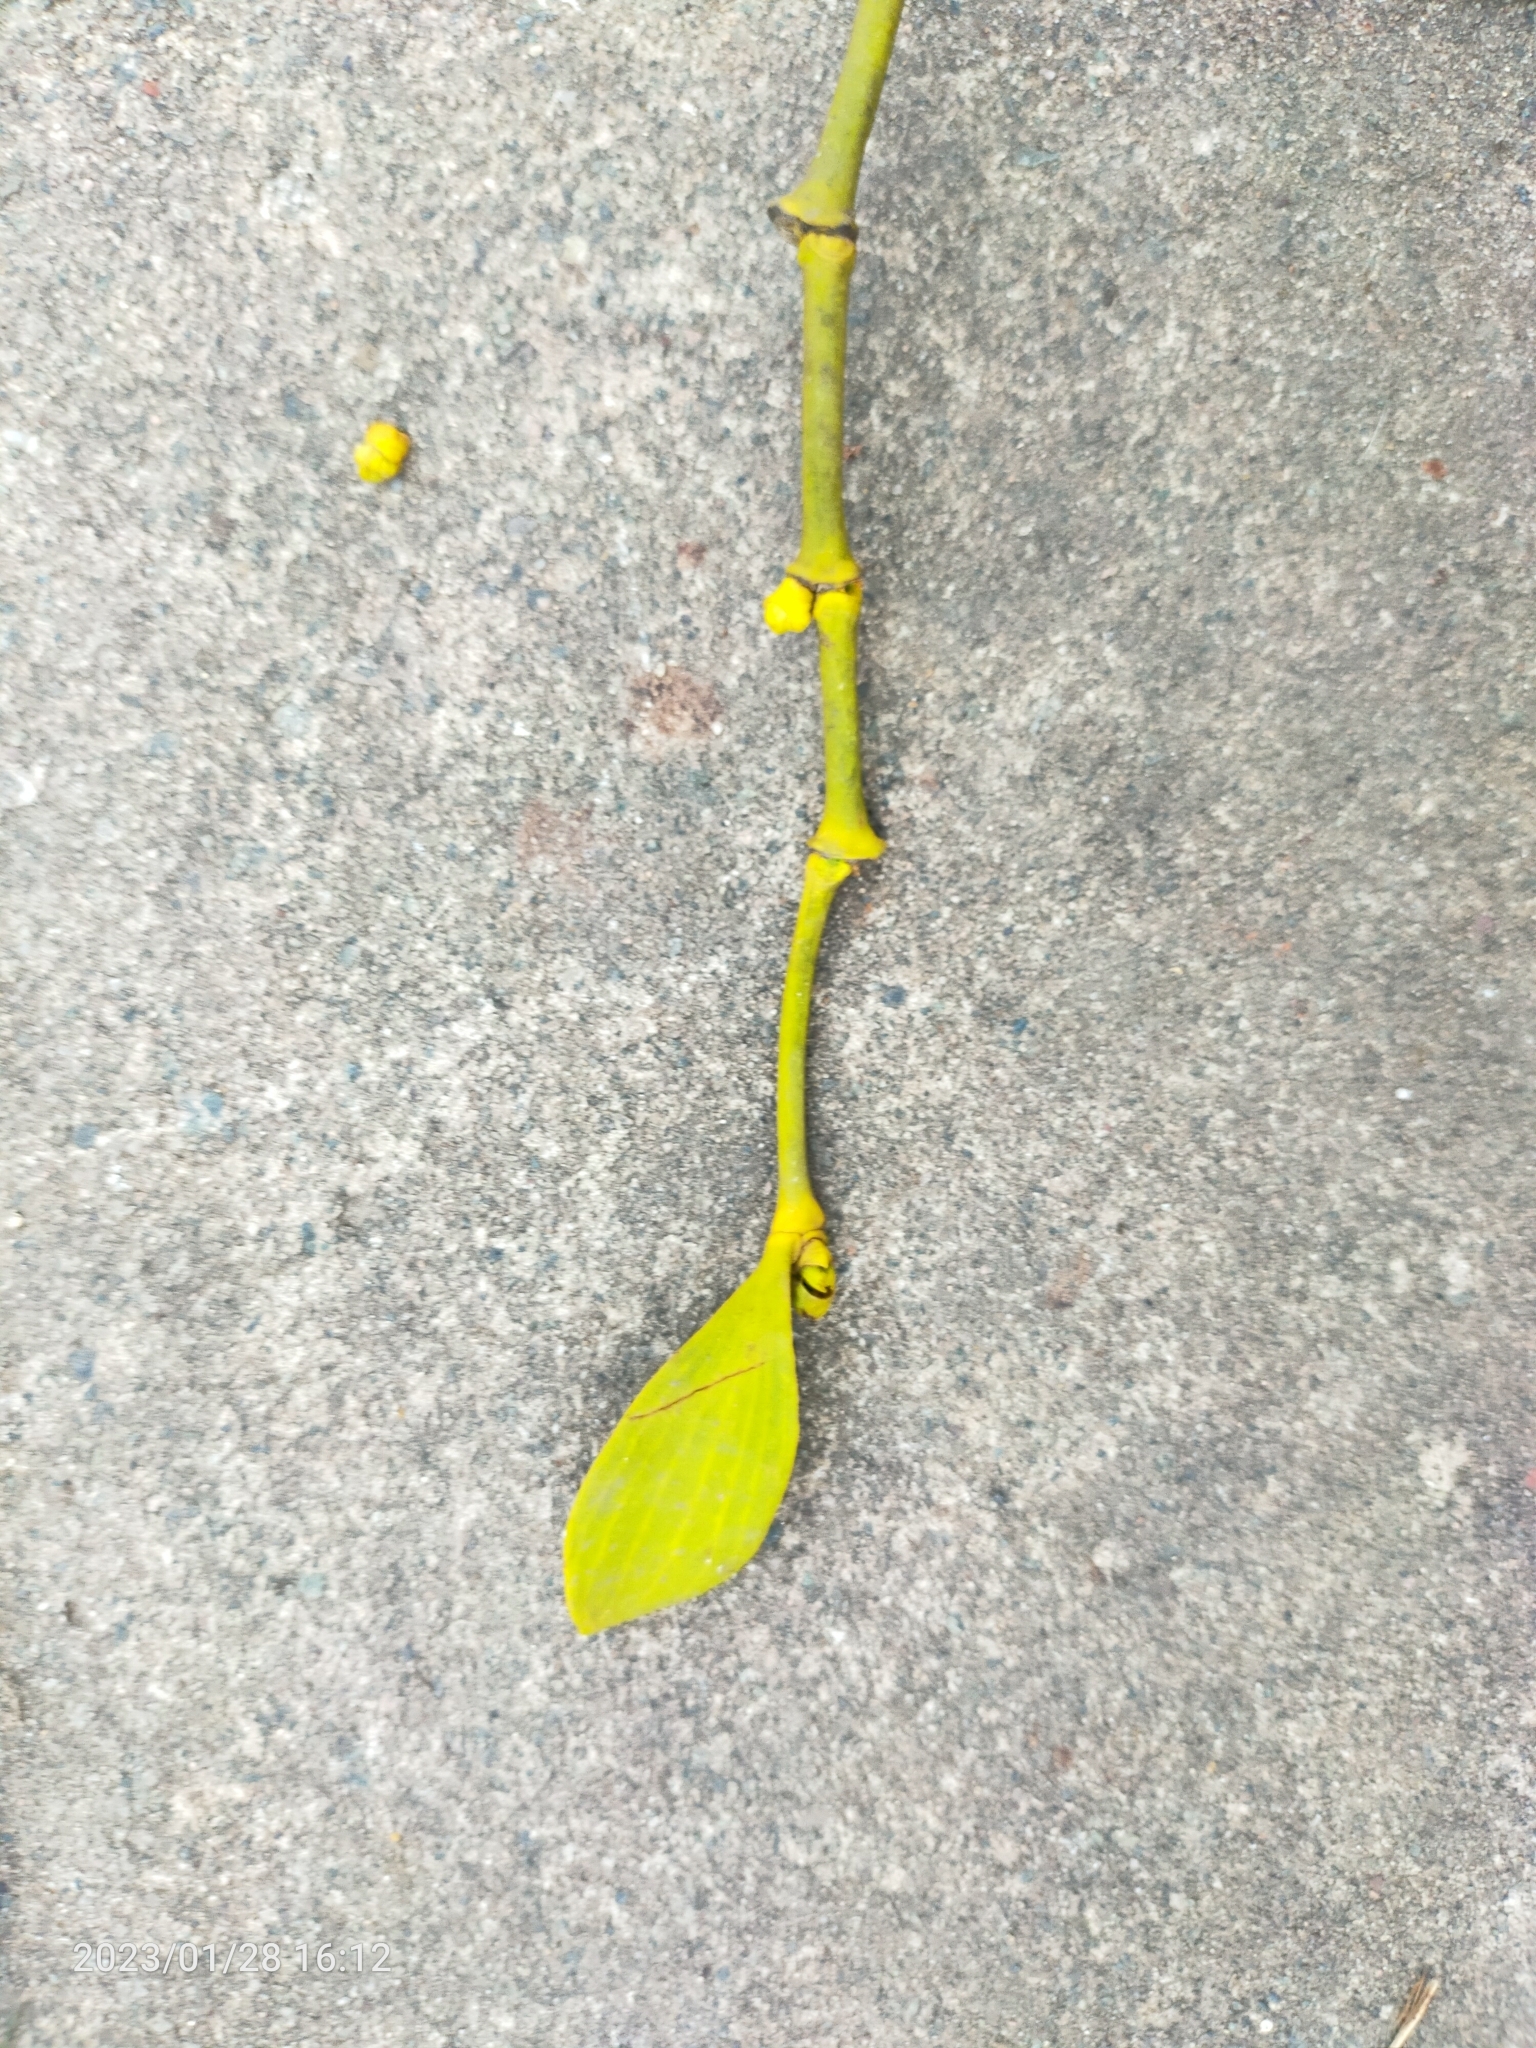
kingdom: Plantae
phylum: Tracheophyta
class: Magnoliopsida
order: Santalales
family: Viscaceae
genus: Viscum
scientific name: Viscum album
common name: Mistletoe
